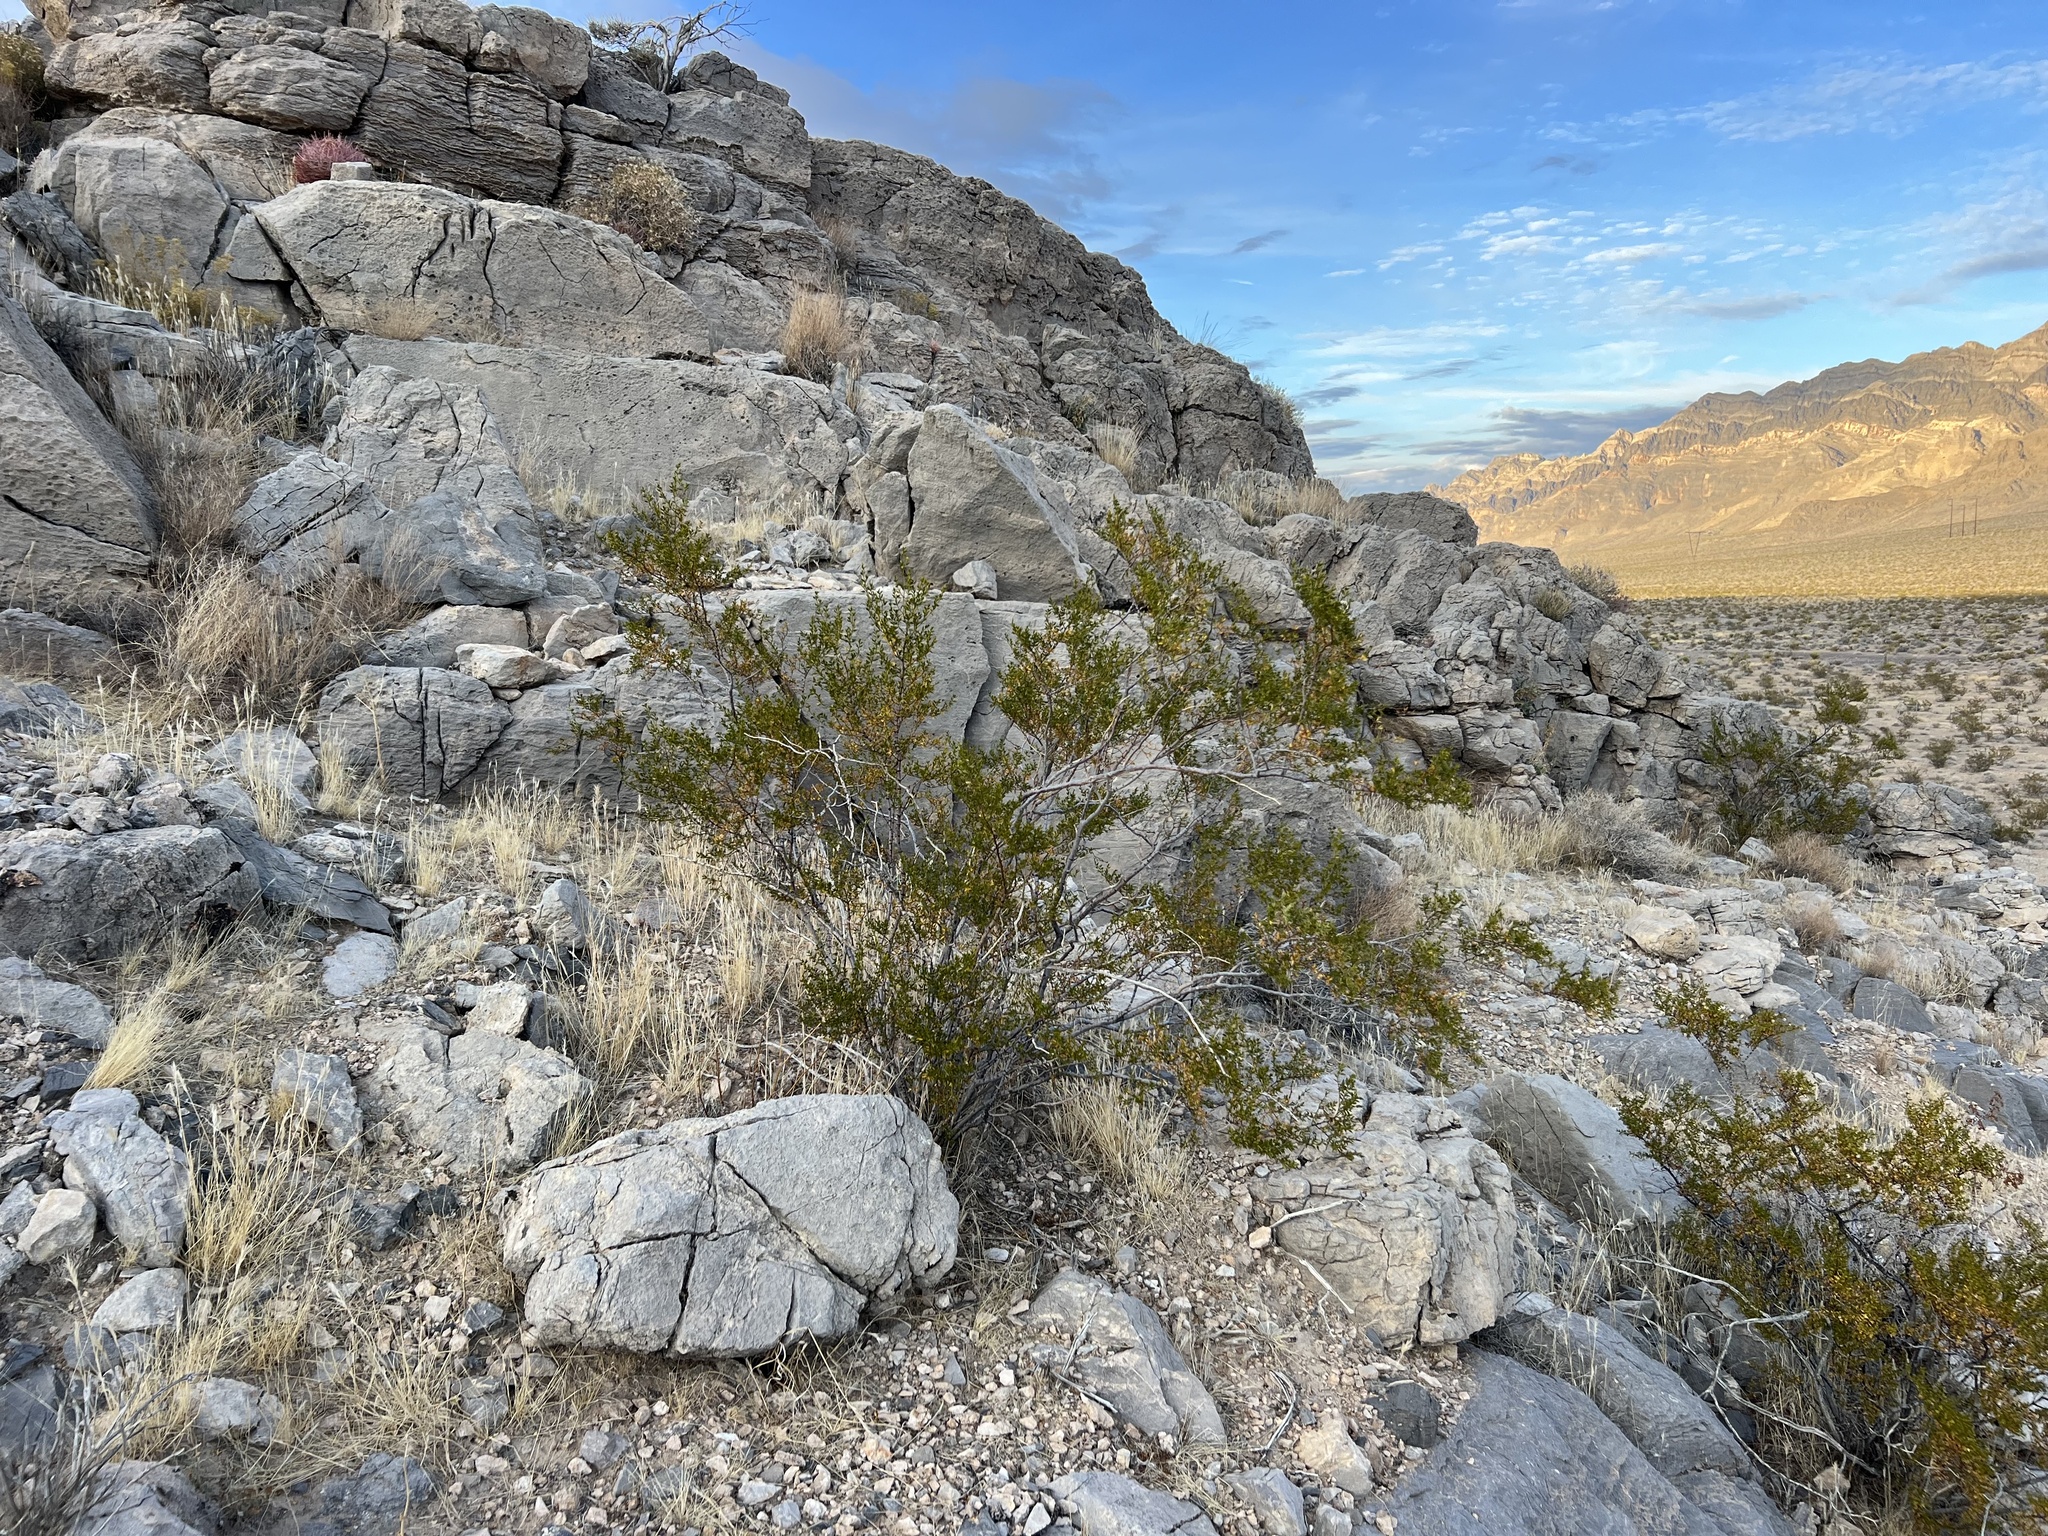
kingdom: Plantae
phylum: Tracheophyta
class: Magnoliopsida
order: Zygophyllales
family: Zygophyllaceae
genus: Larrea
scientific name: Larrea tridentata
